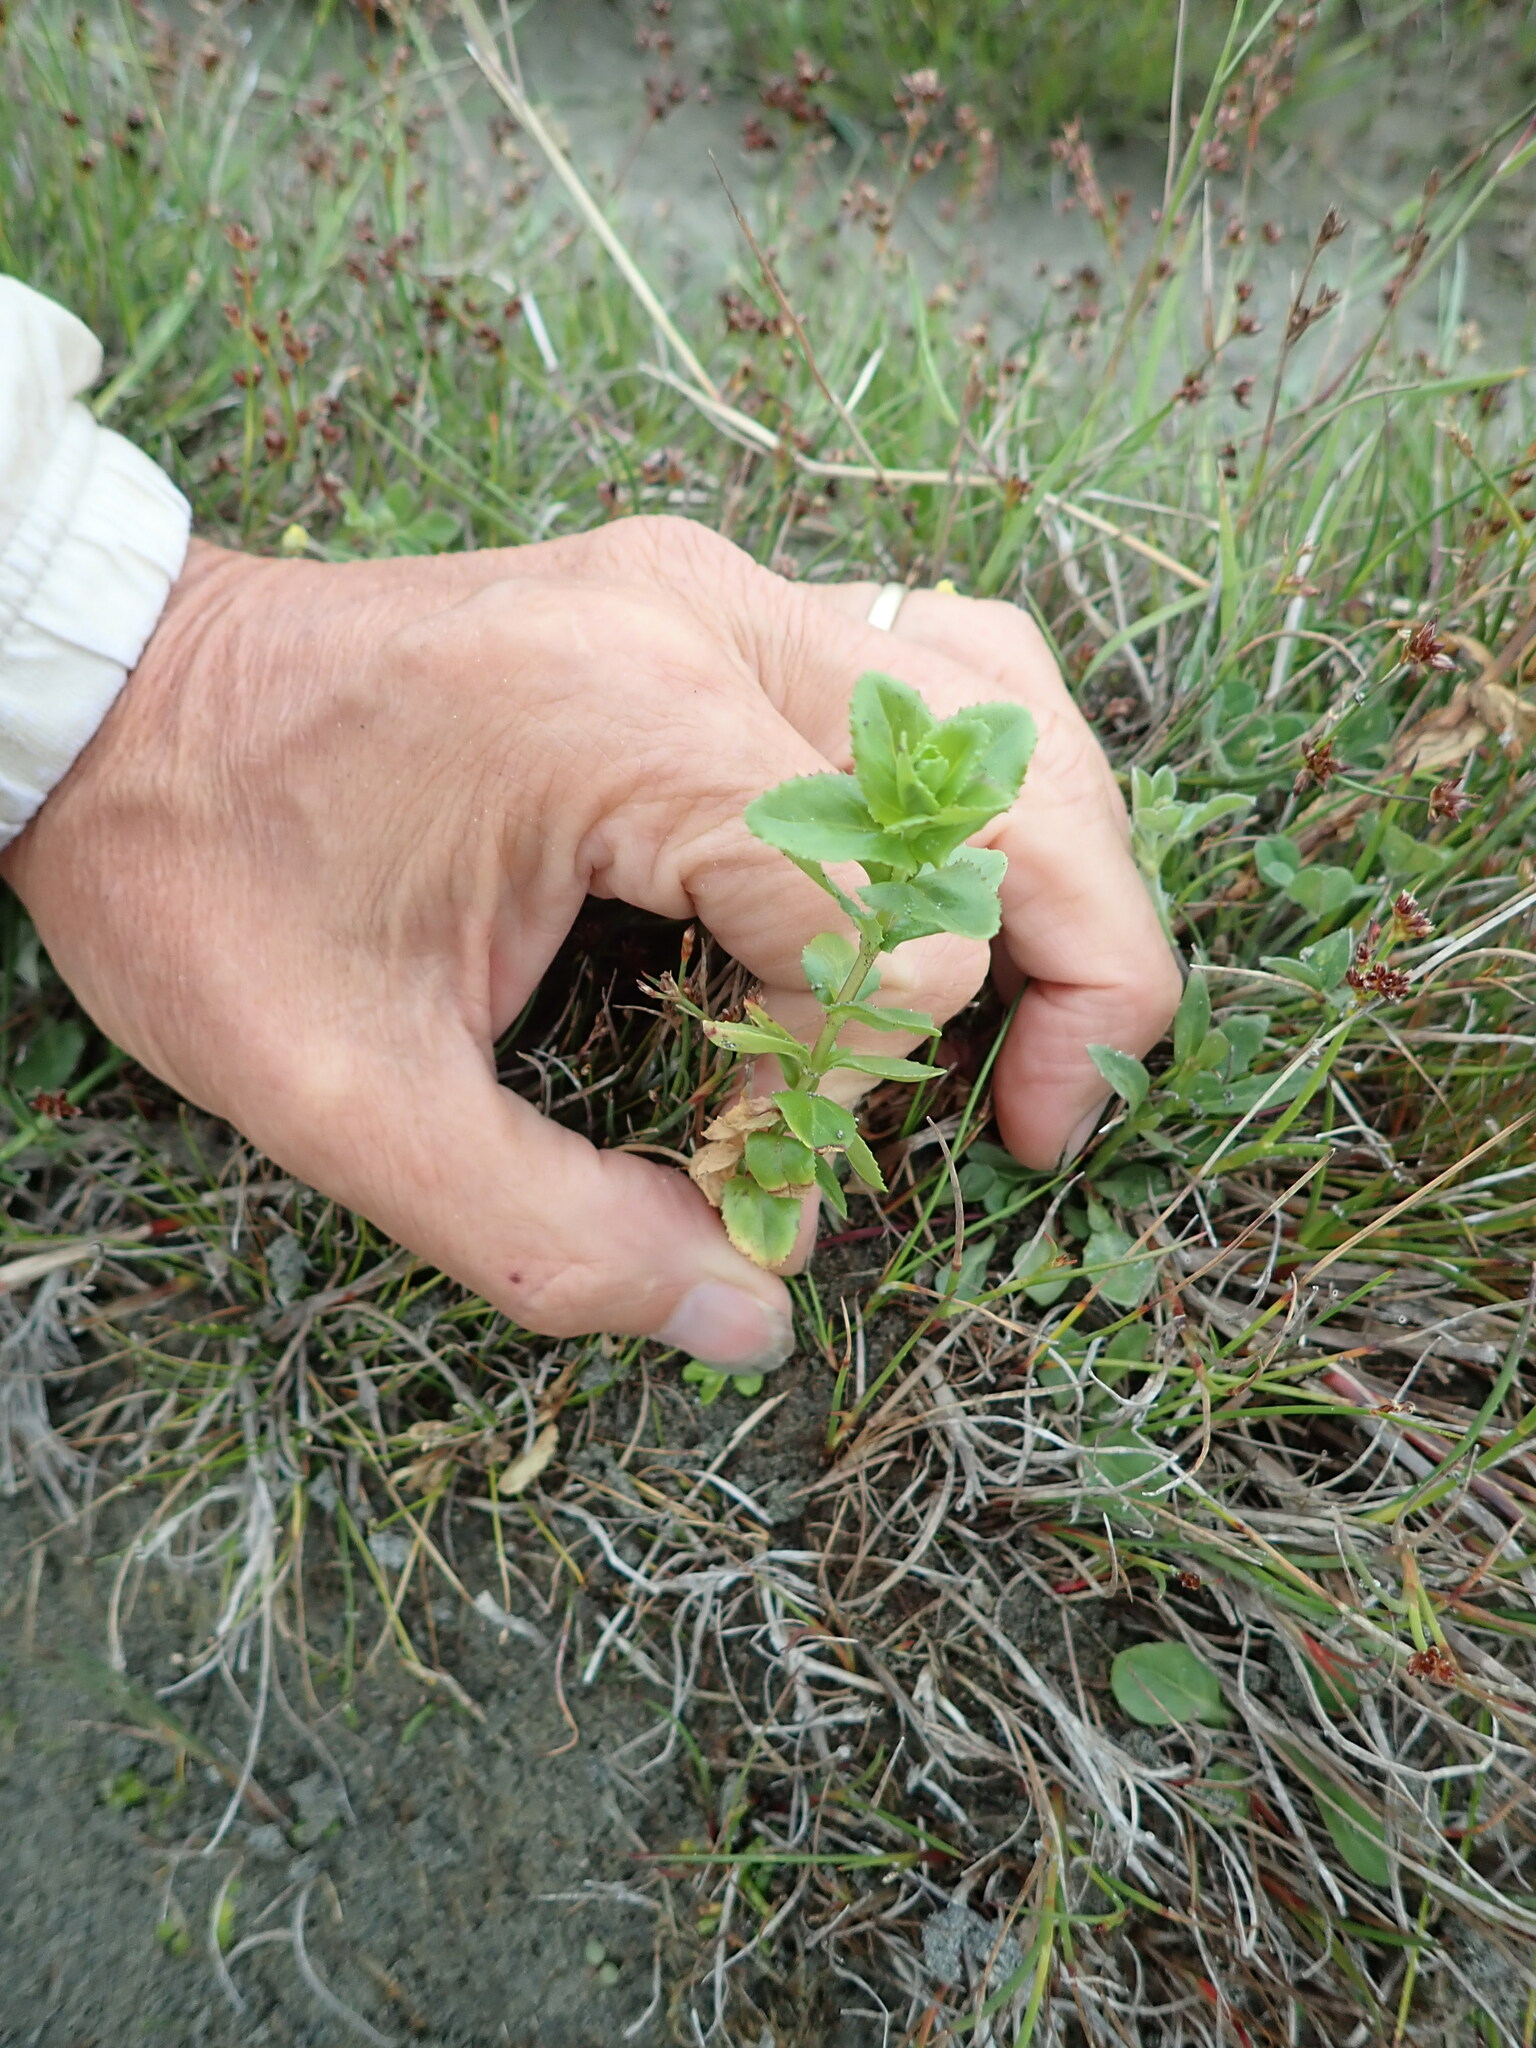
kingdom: Plantae
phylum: Tracheophyta
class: Magnoliopsida
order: Myrtales
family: Onagraceae
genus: Epilobium
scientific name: Epilobium billardiereanum
